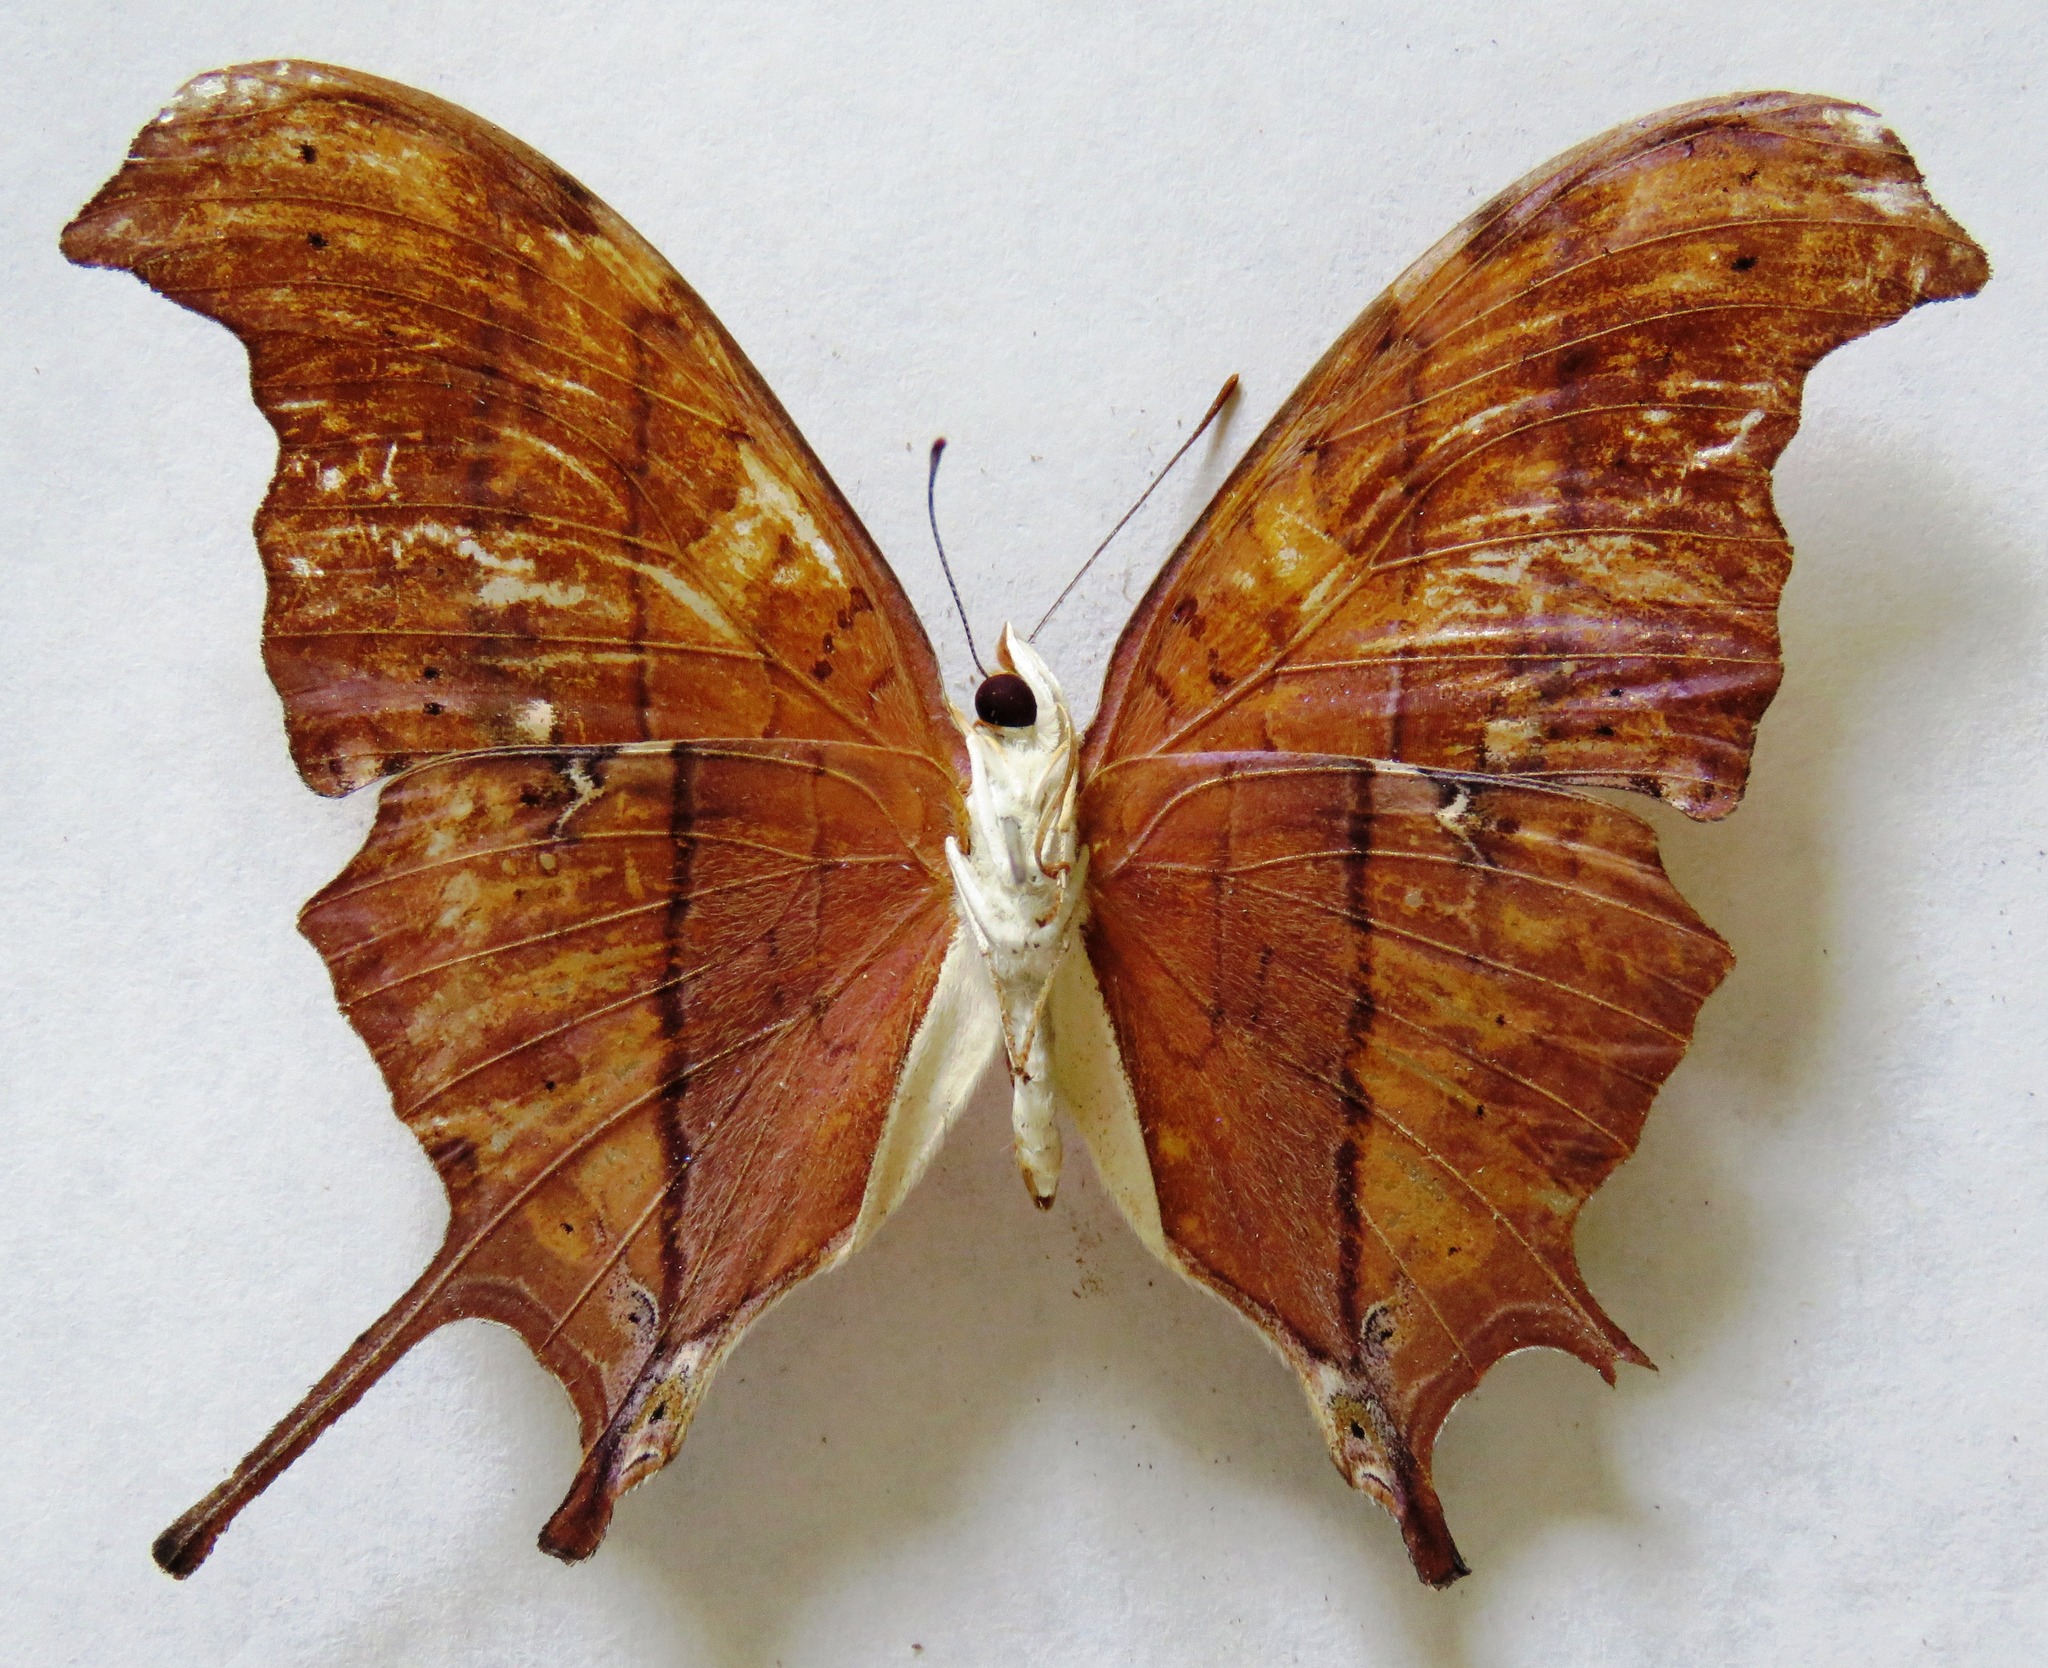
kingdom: Animalia
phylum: Arthropoda
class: Insecta
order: Lepidoptera
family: Nymphalidae
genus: Marpesia
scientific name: Marpesia petreus
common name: Red dagger wing
